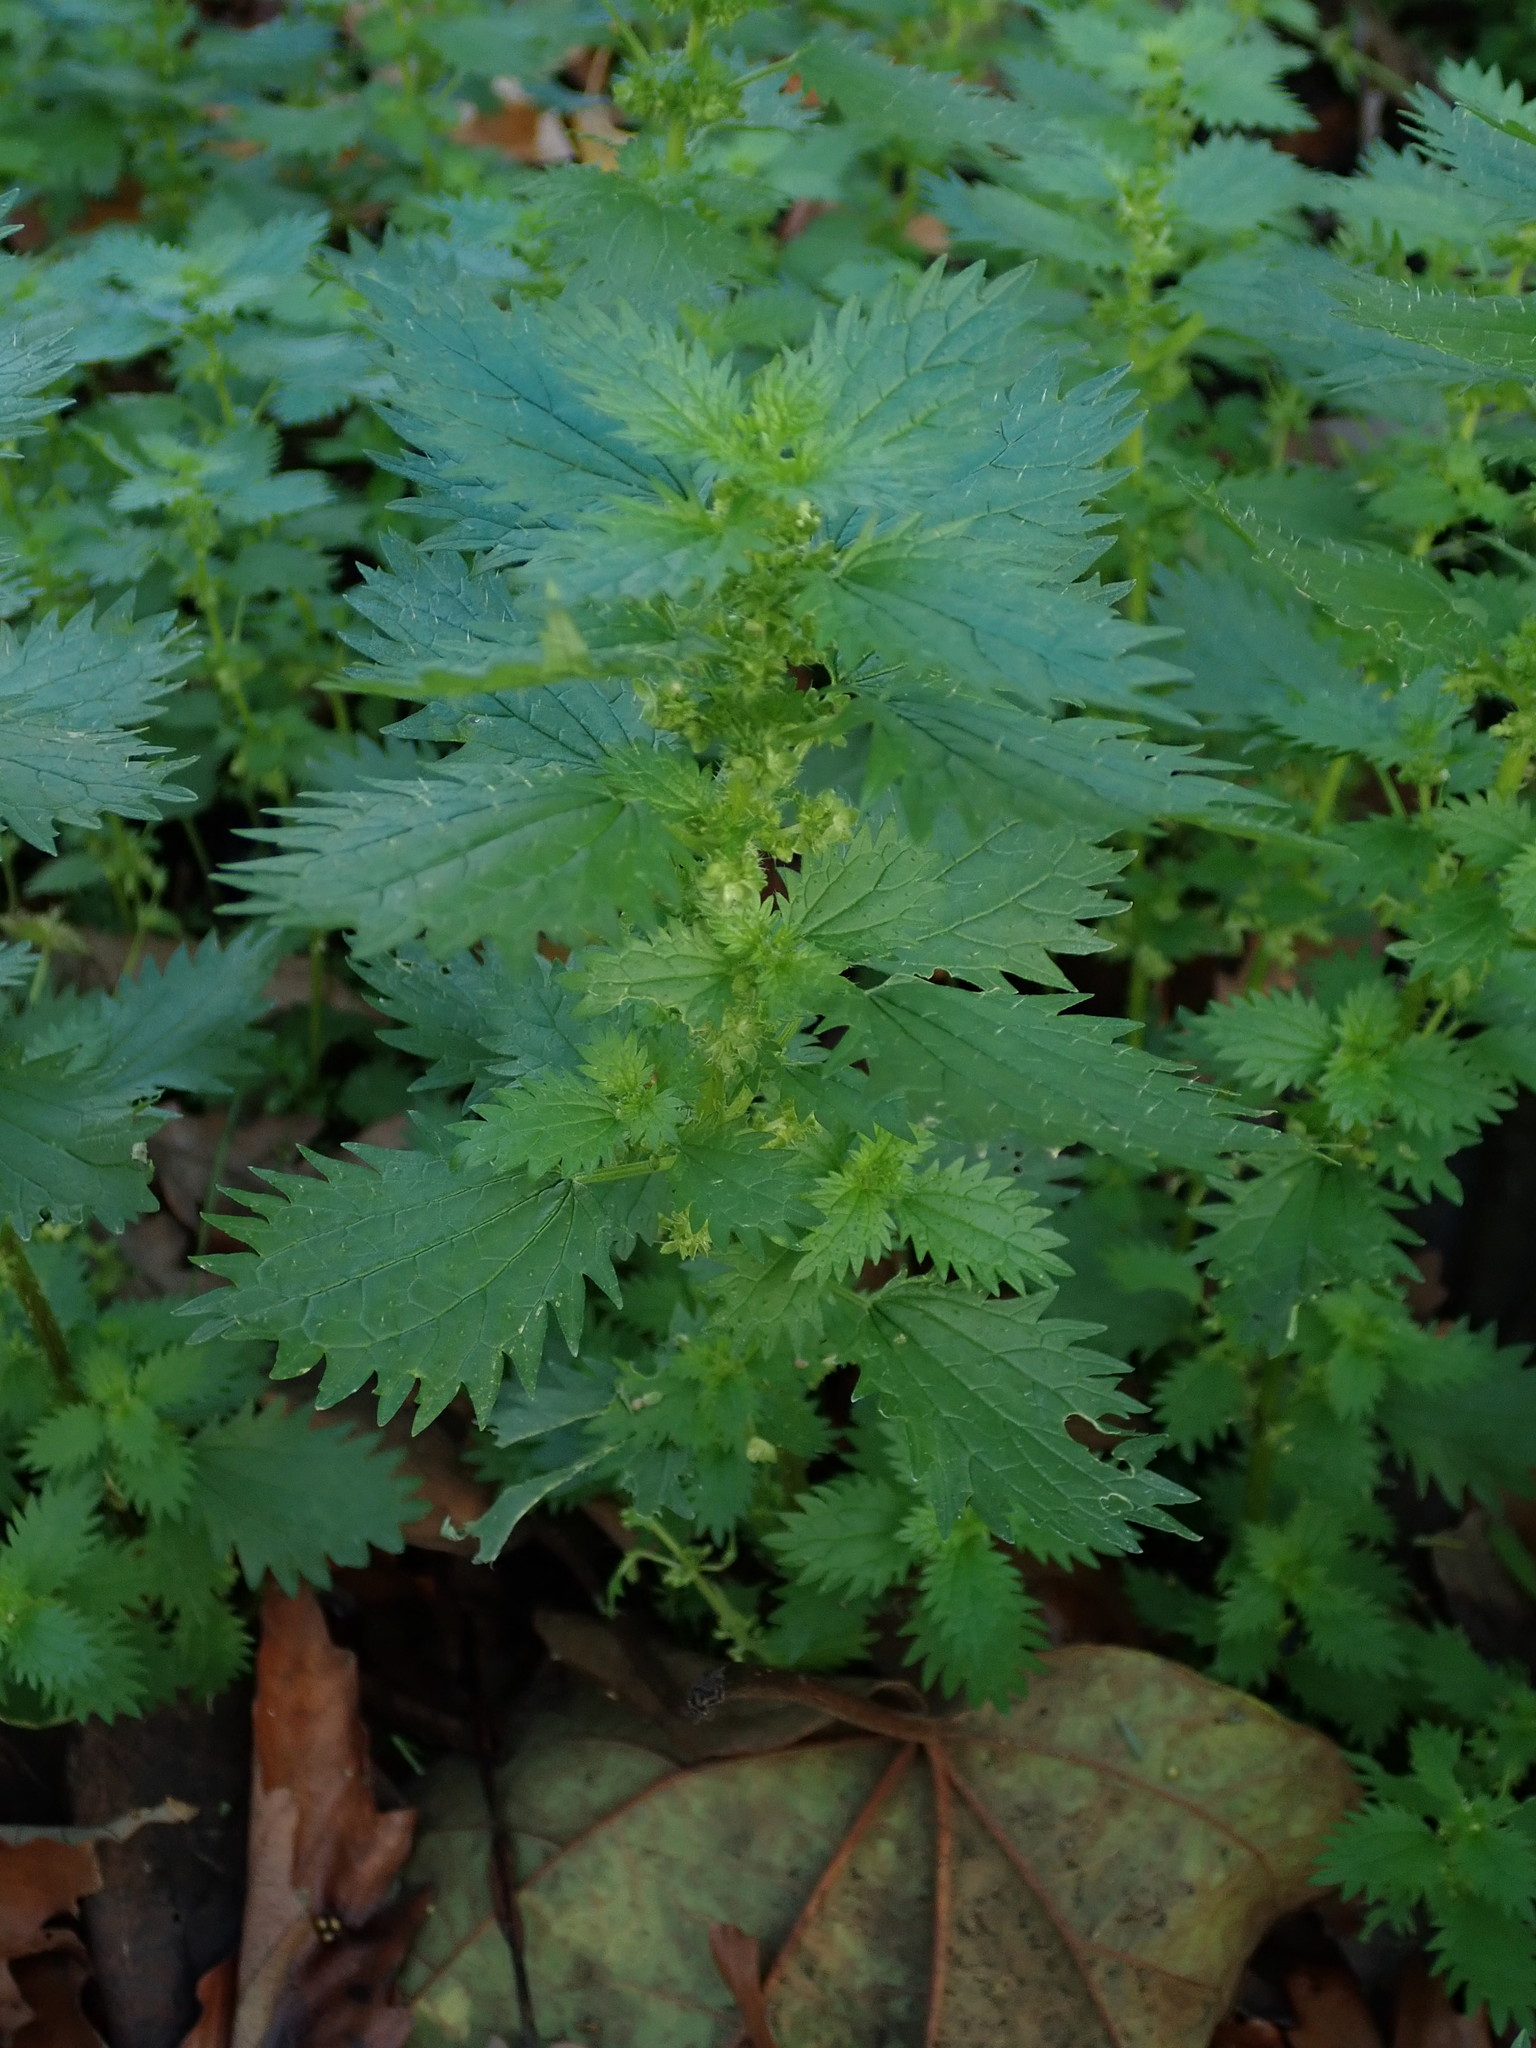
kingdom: Plantae
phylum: Tracheophyta
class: Magnoliopsida
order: Rosales
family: Urticaceae
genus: Urtica
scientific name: Urtica urens
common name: Dwarf nettle
